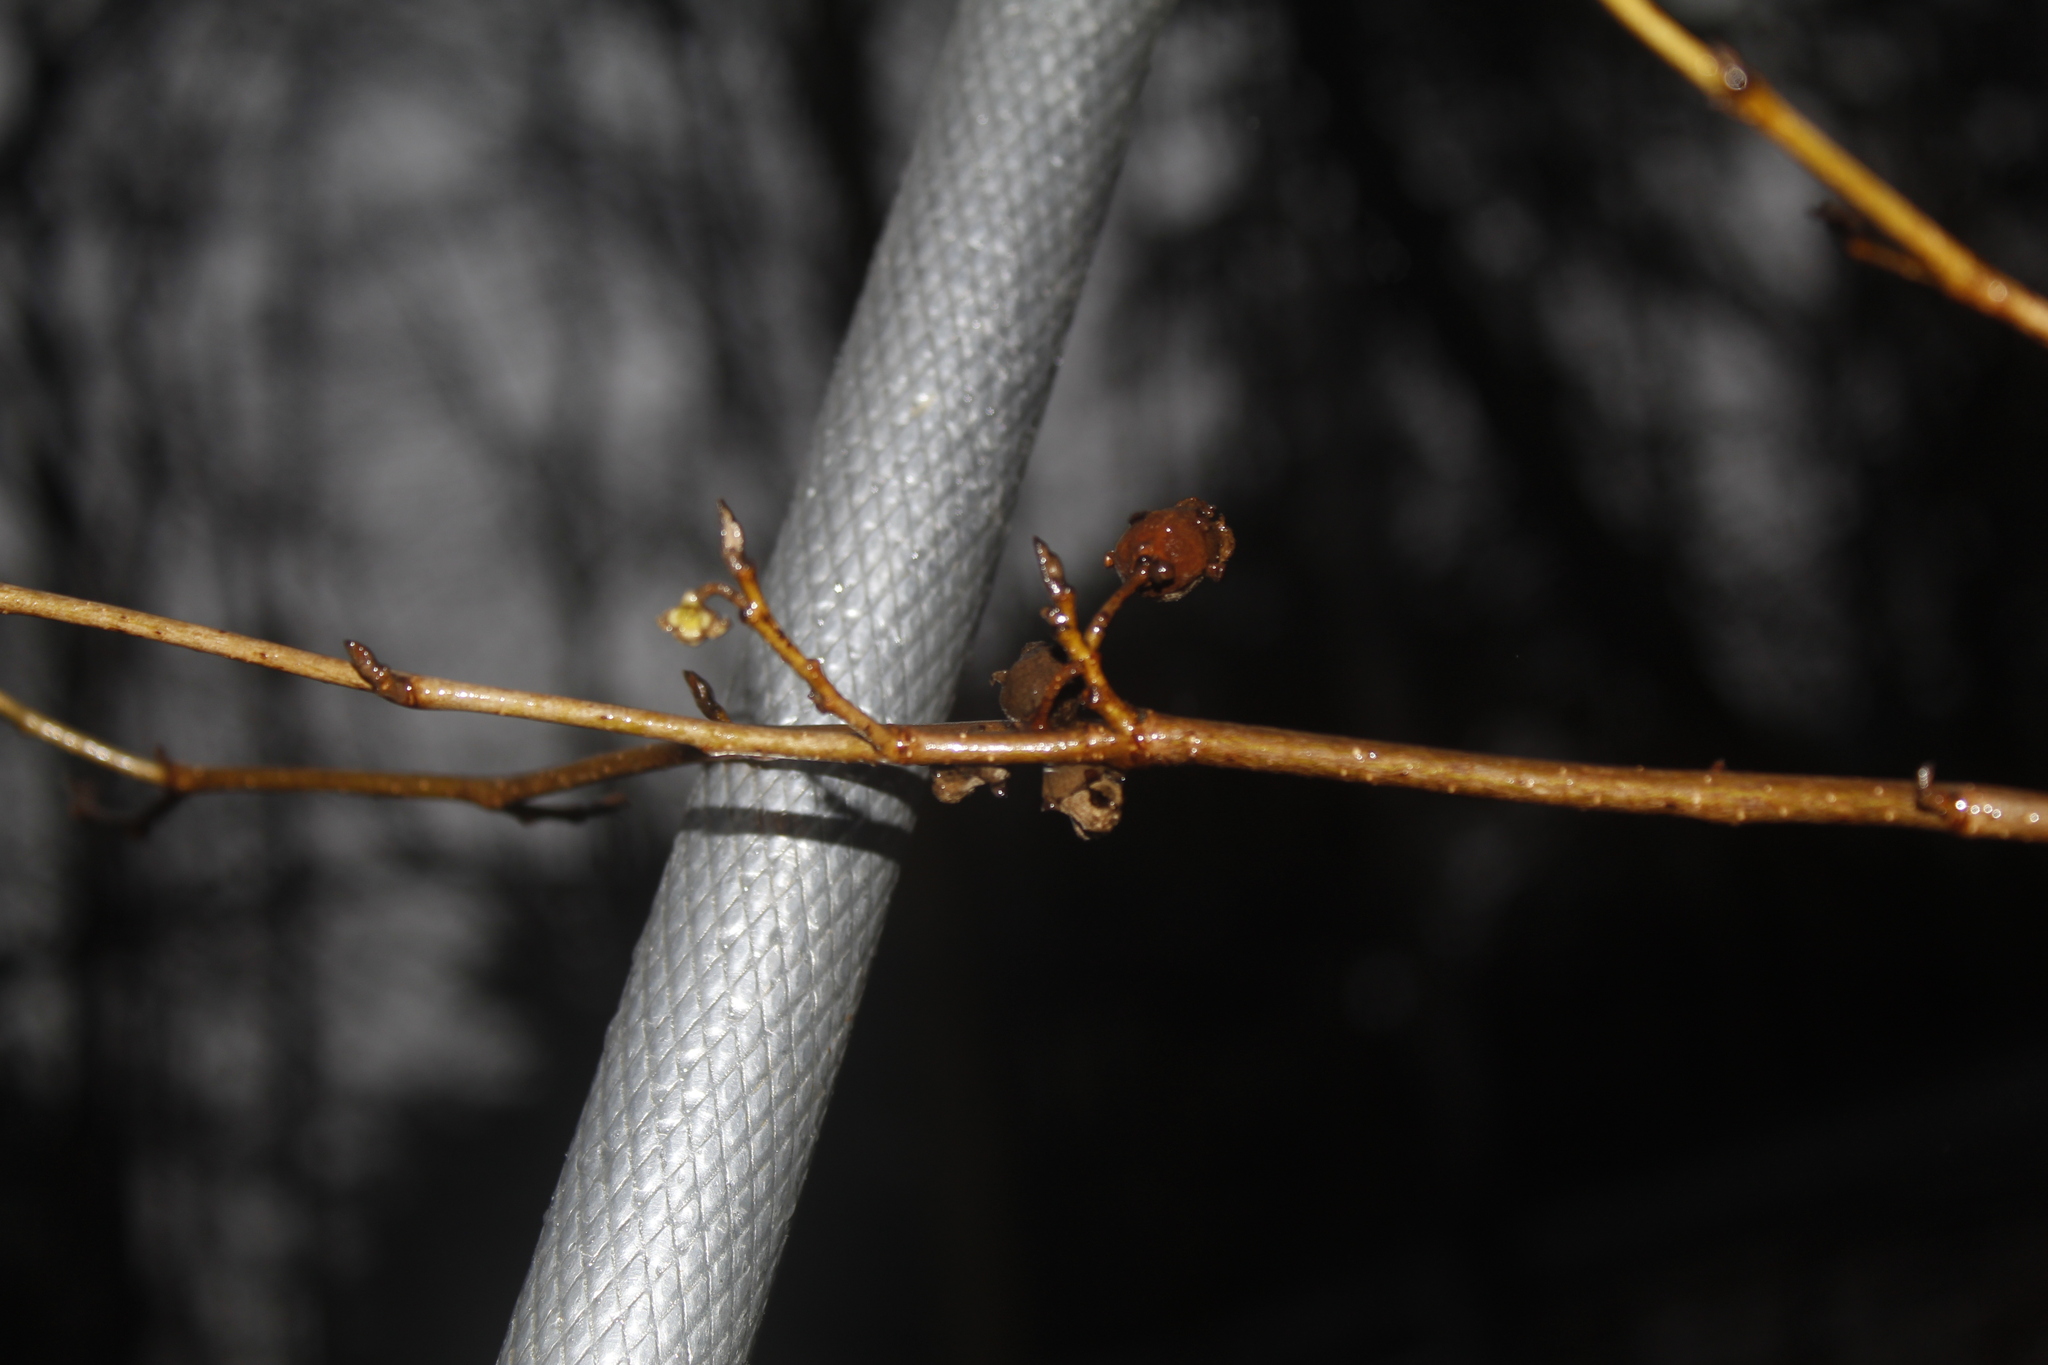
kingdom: Plantae
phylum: Tracheophyta
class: Magnoliopsida
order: Saxifragales
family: Hamamelidaceae
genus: Hamamelis
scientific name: Hamamelis virginiana
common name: Witch-hazel
